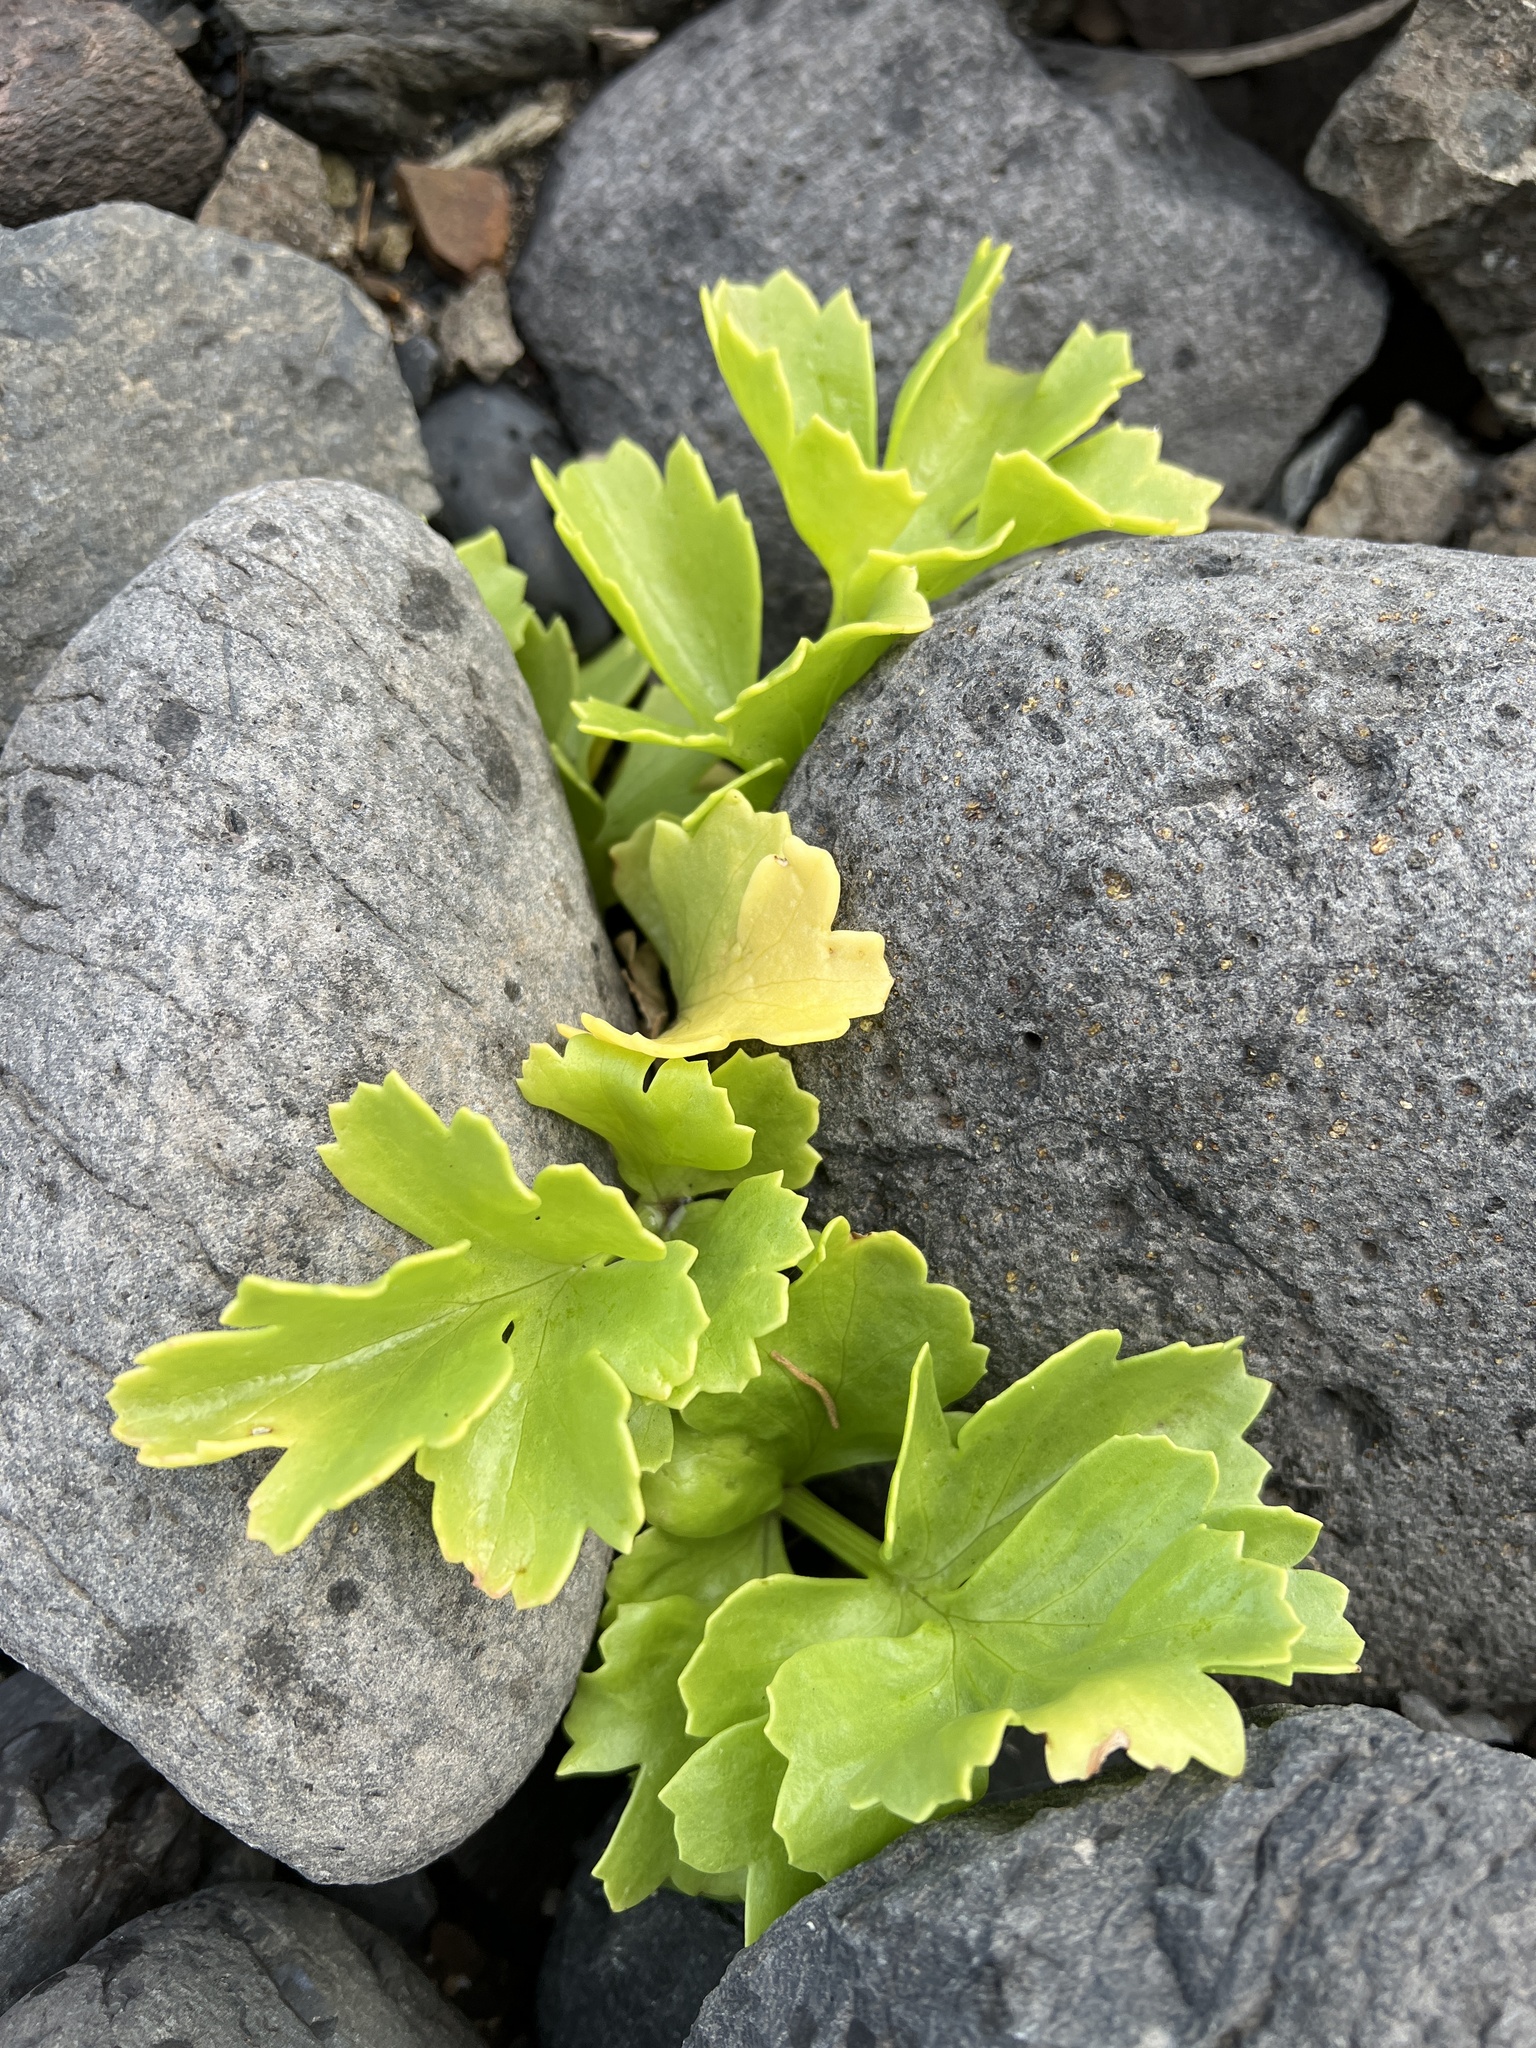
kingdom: Plantae
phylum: Tracheophyta
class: Magnoliopsida
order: Apiales
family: Apiaceae
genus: Astydamia
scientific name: Astydamia latifolia
